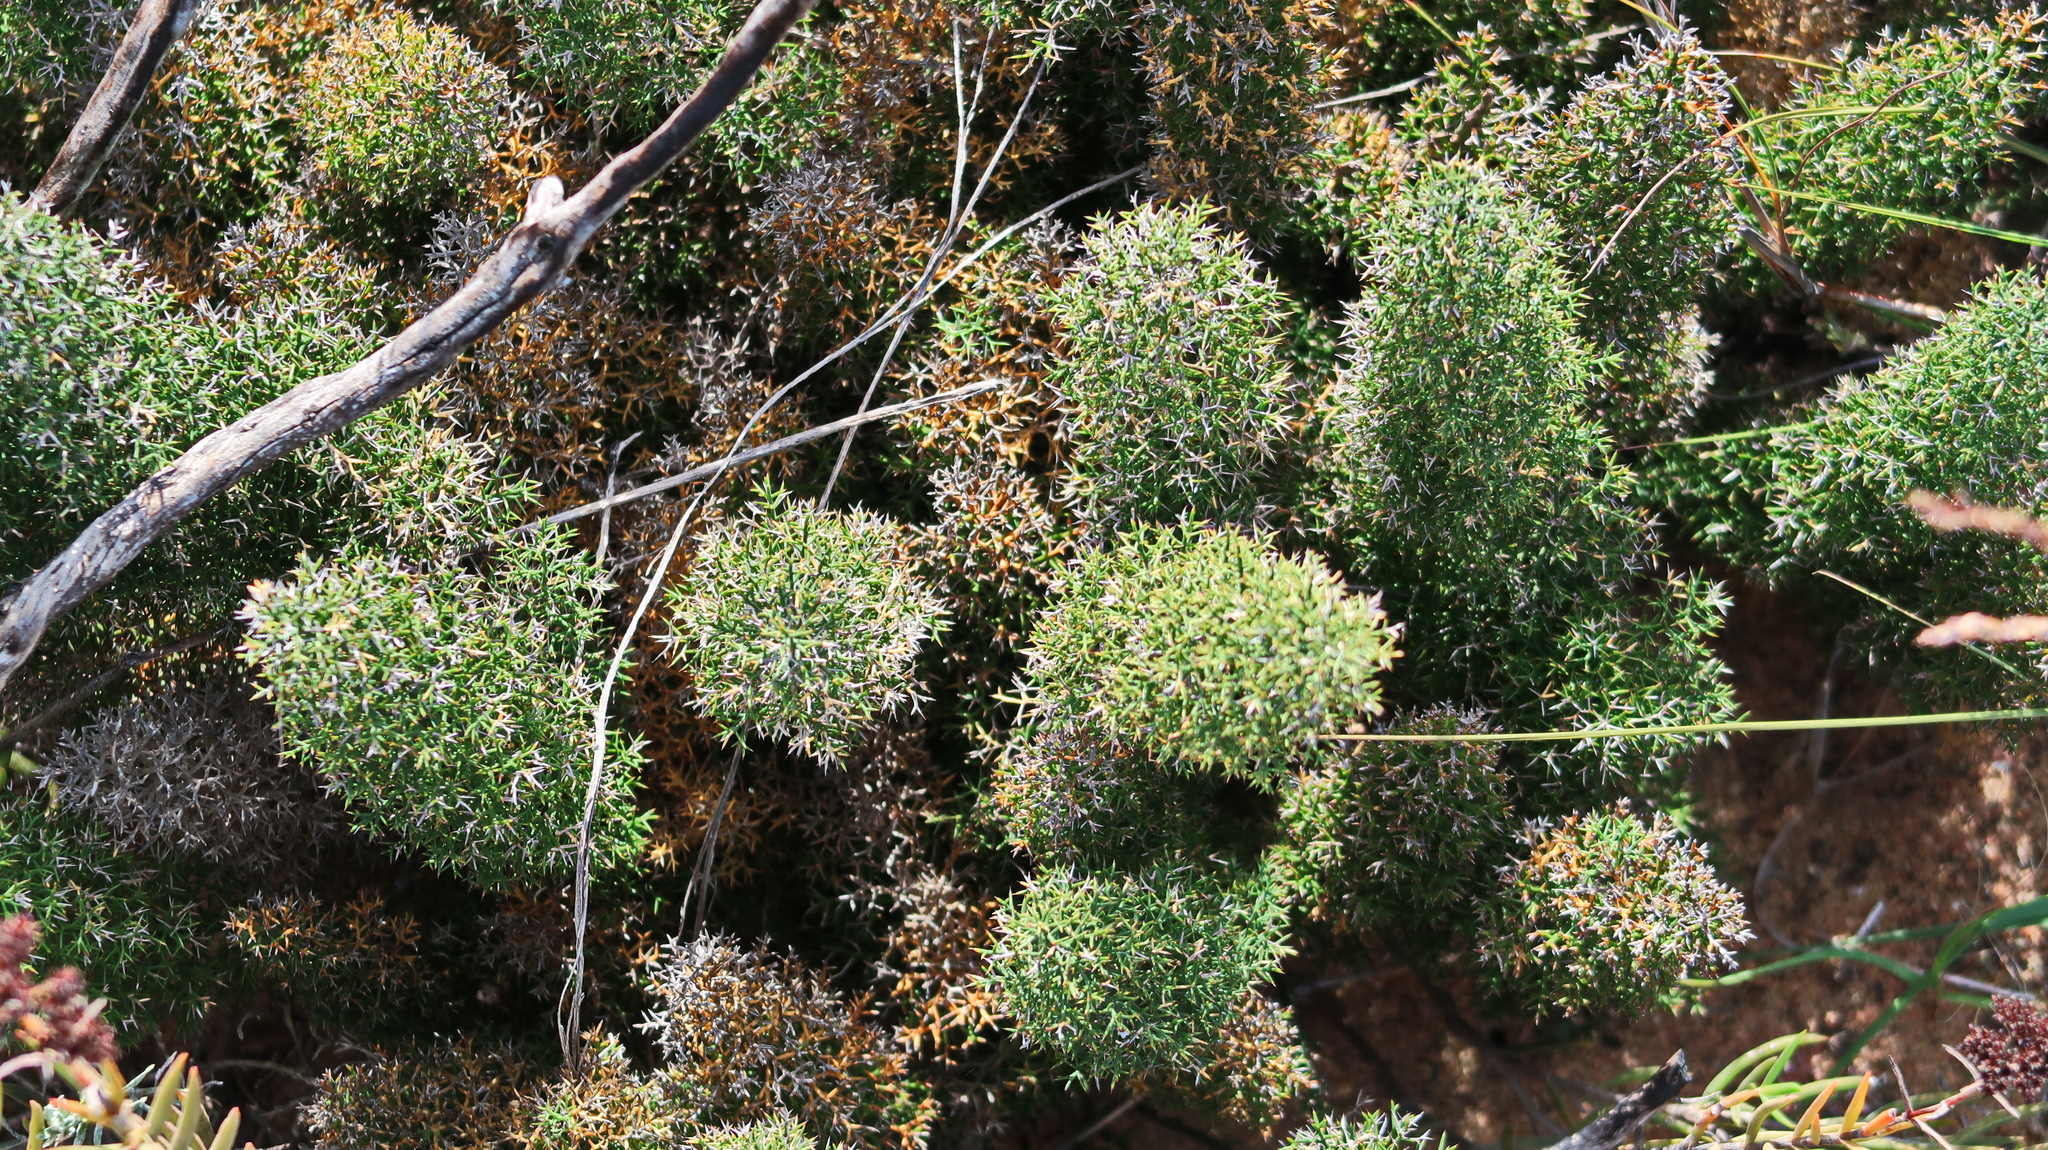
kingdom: Plantae
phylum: Tracheophyta
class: Liliopsida
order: Asparagales
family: Asparagaceae
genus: Asparagus
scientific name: Asparagus oliveri
